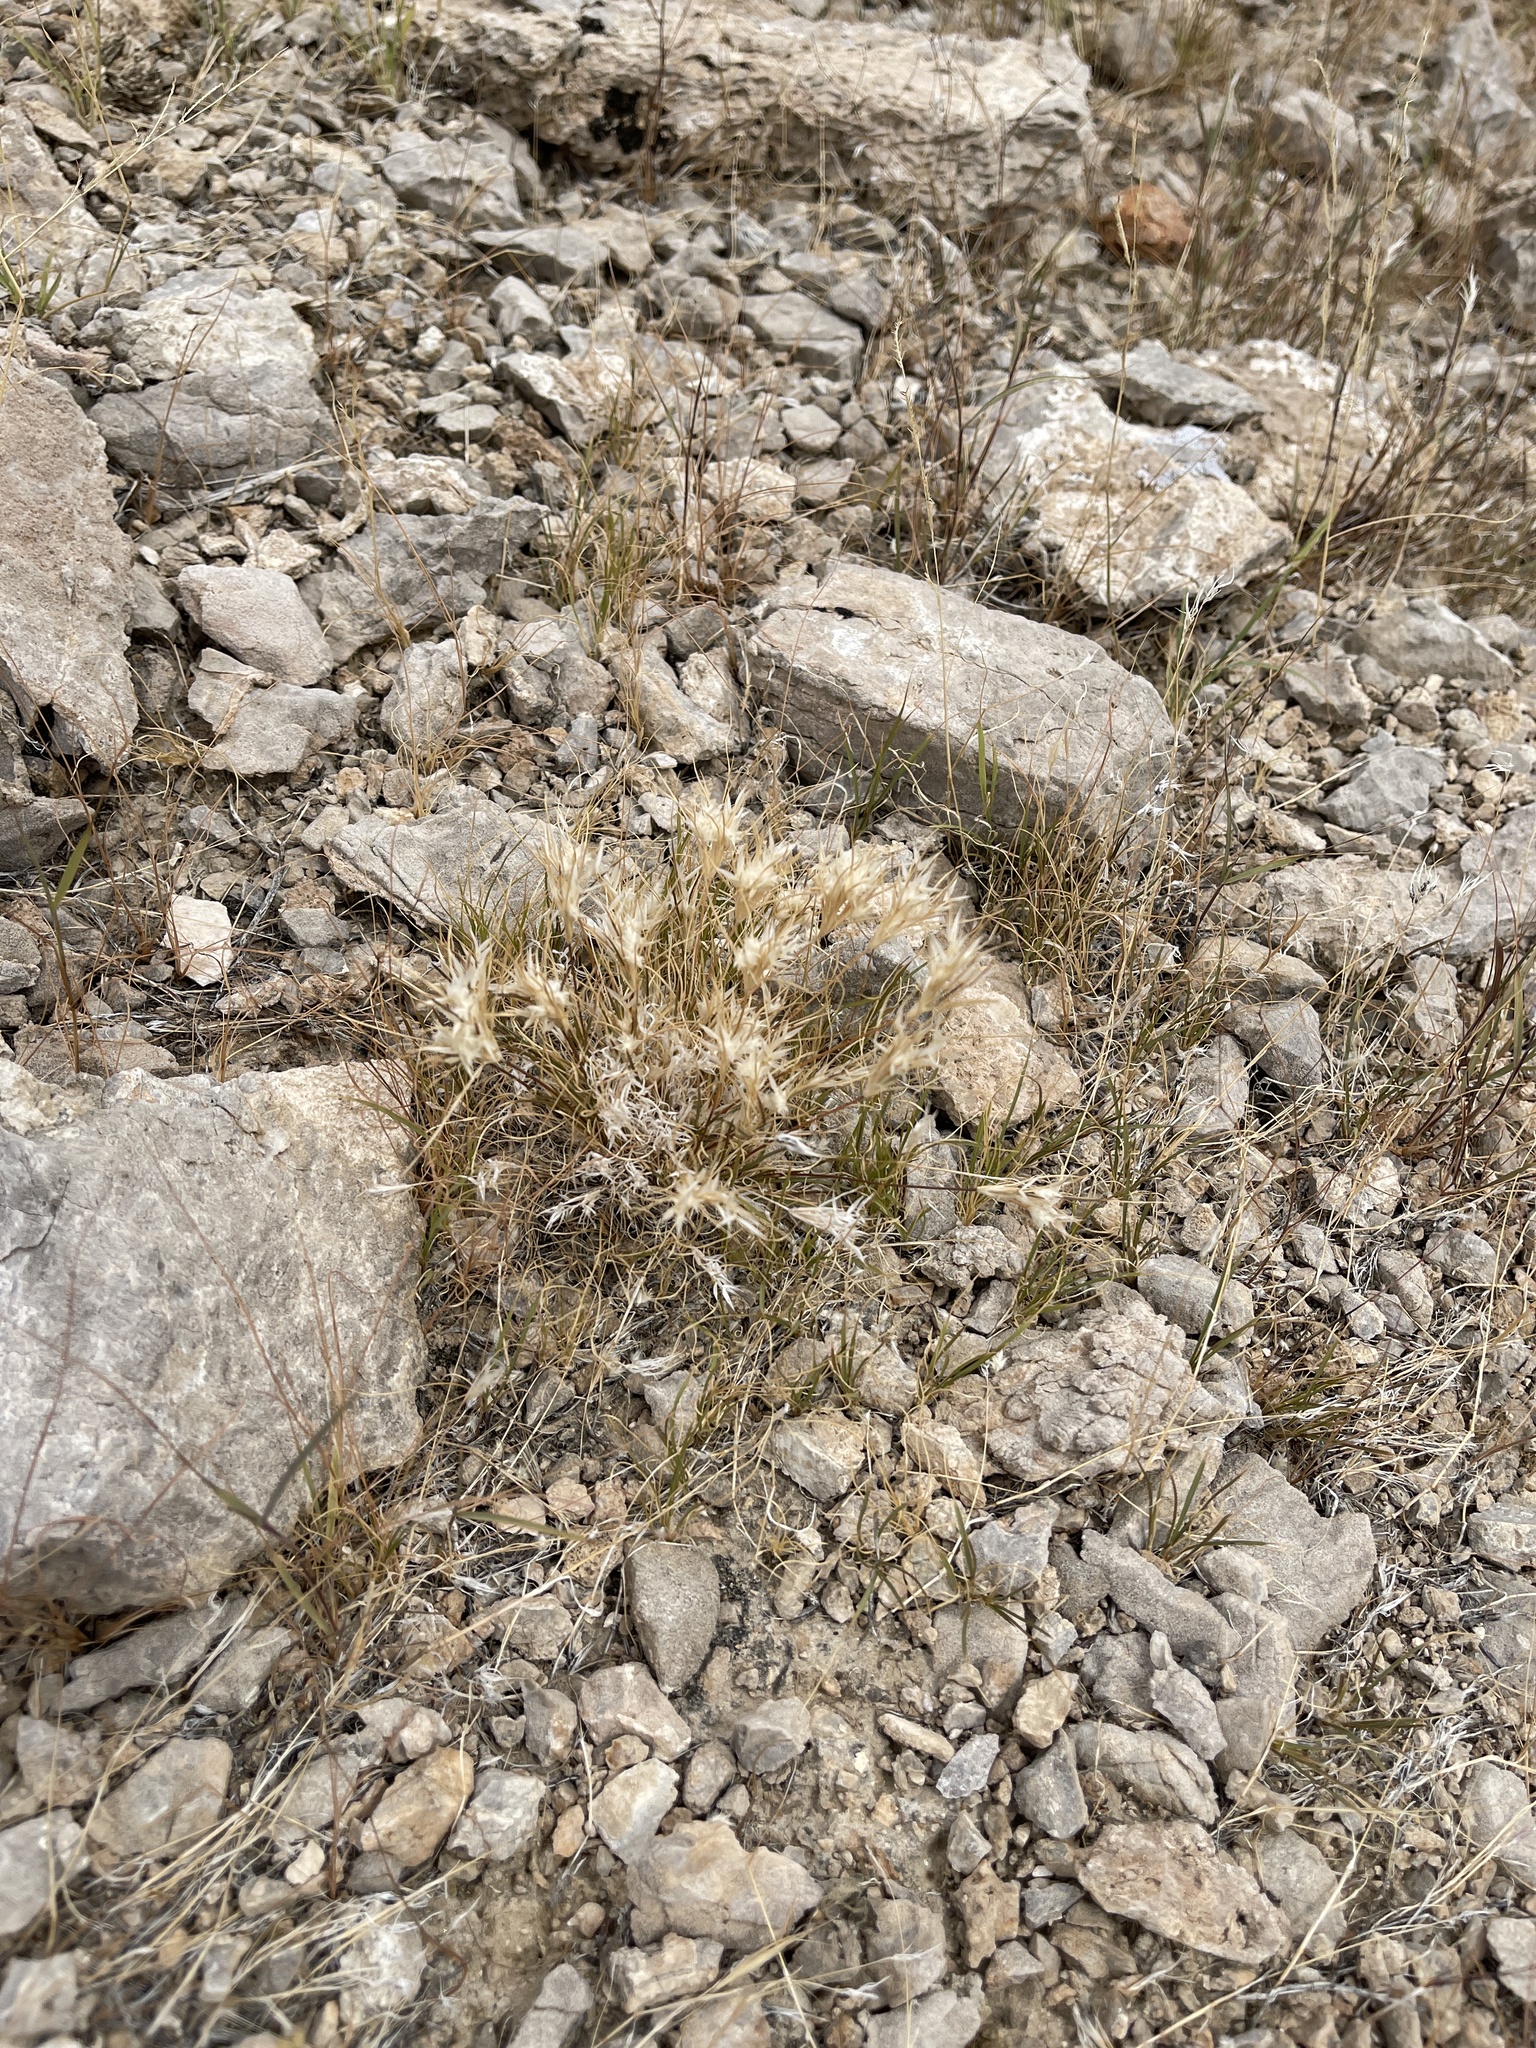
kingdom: Plantae
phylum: Tracheophyta
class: Liliopsida
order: Poales
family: Poaceae
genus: Dasyochloa
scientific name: Dasyochloa pulchella
